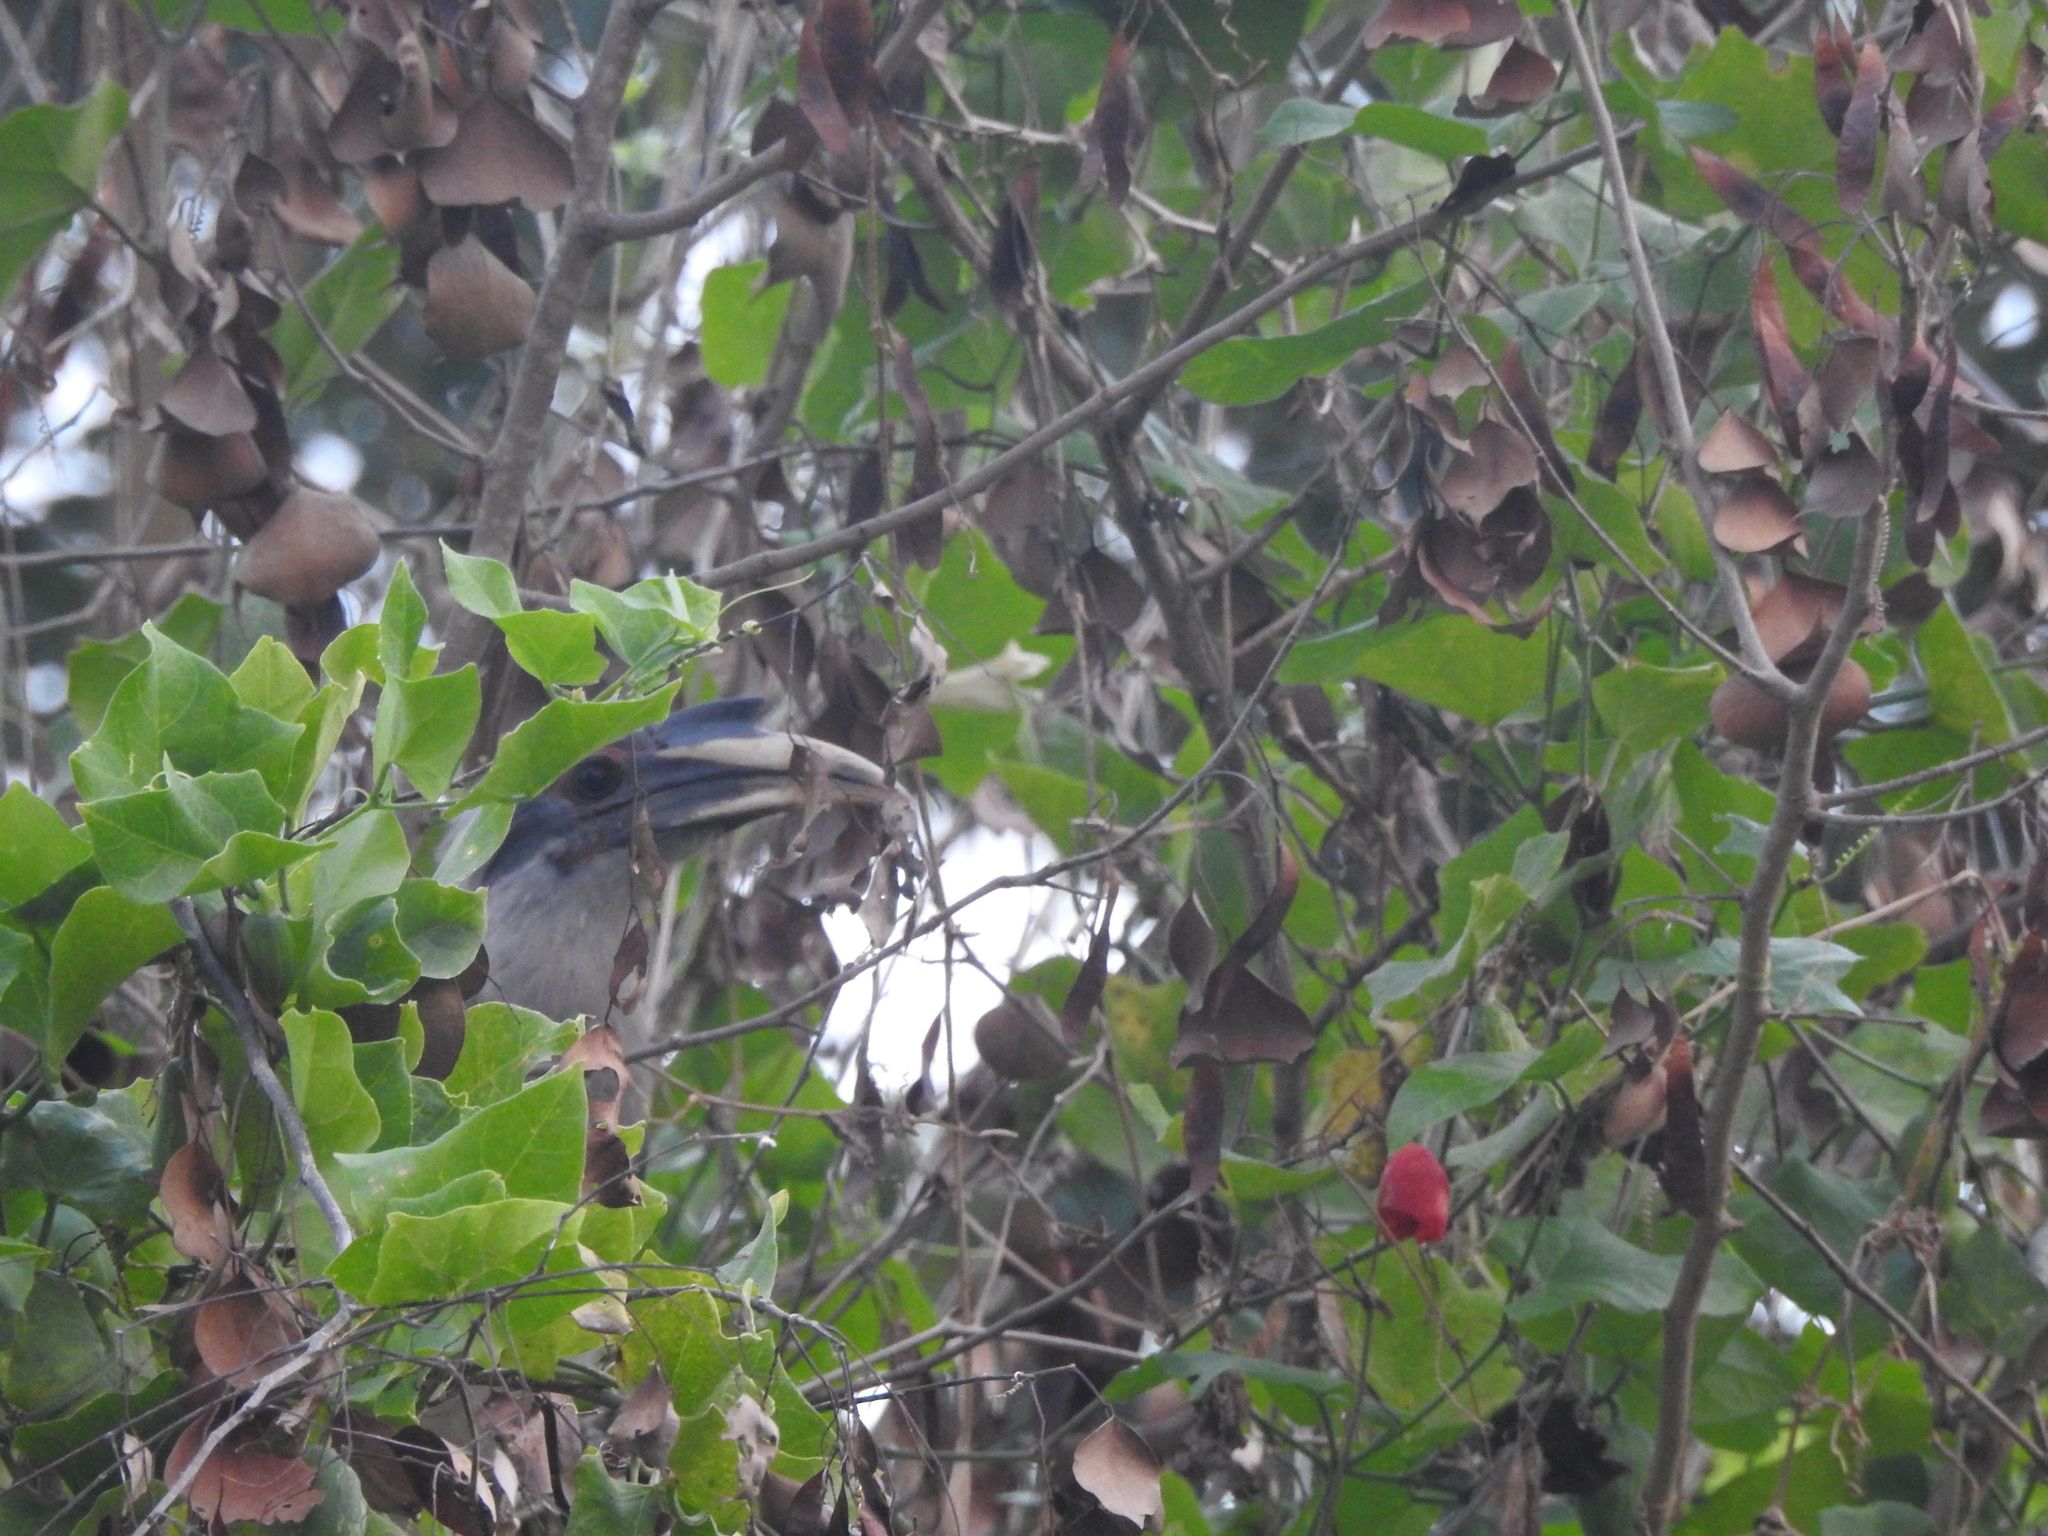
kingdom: Animalia
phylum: Chordata
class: Aves
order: Bucerotiformes
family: Bucerotidae
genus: Ocyceros
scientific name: Ocyceros birostris
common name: Indian grey hornbill
